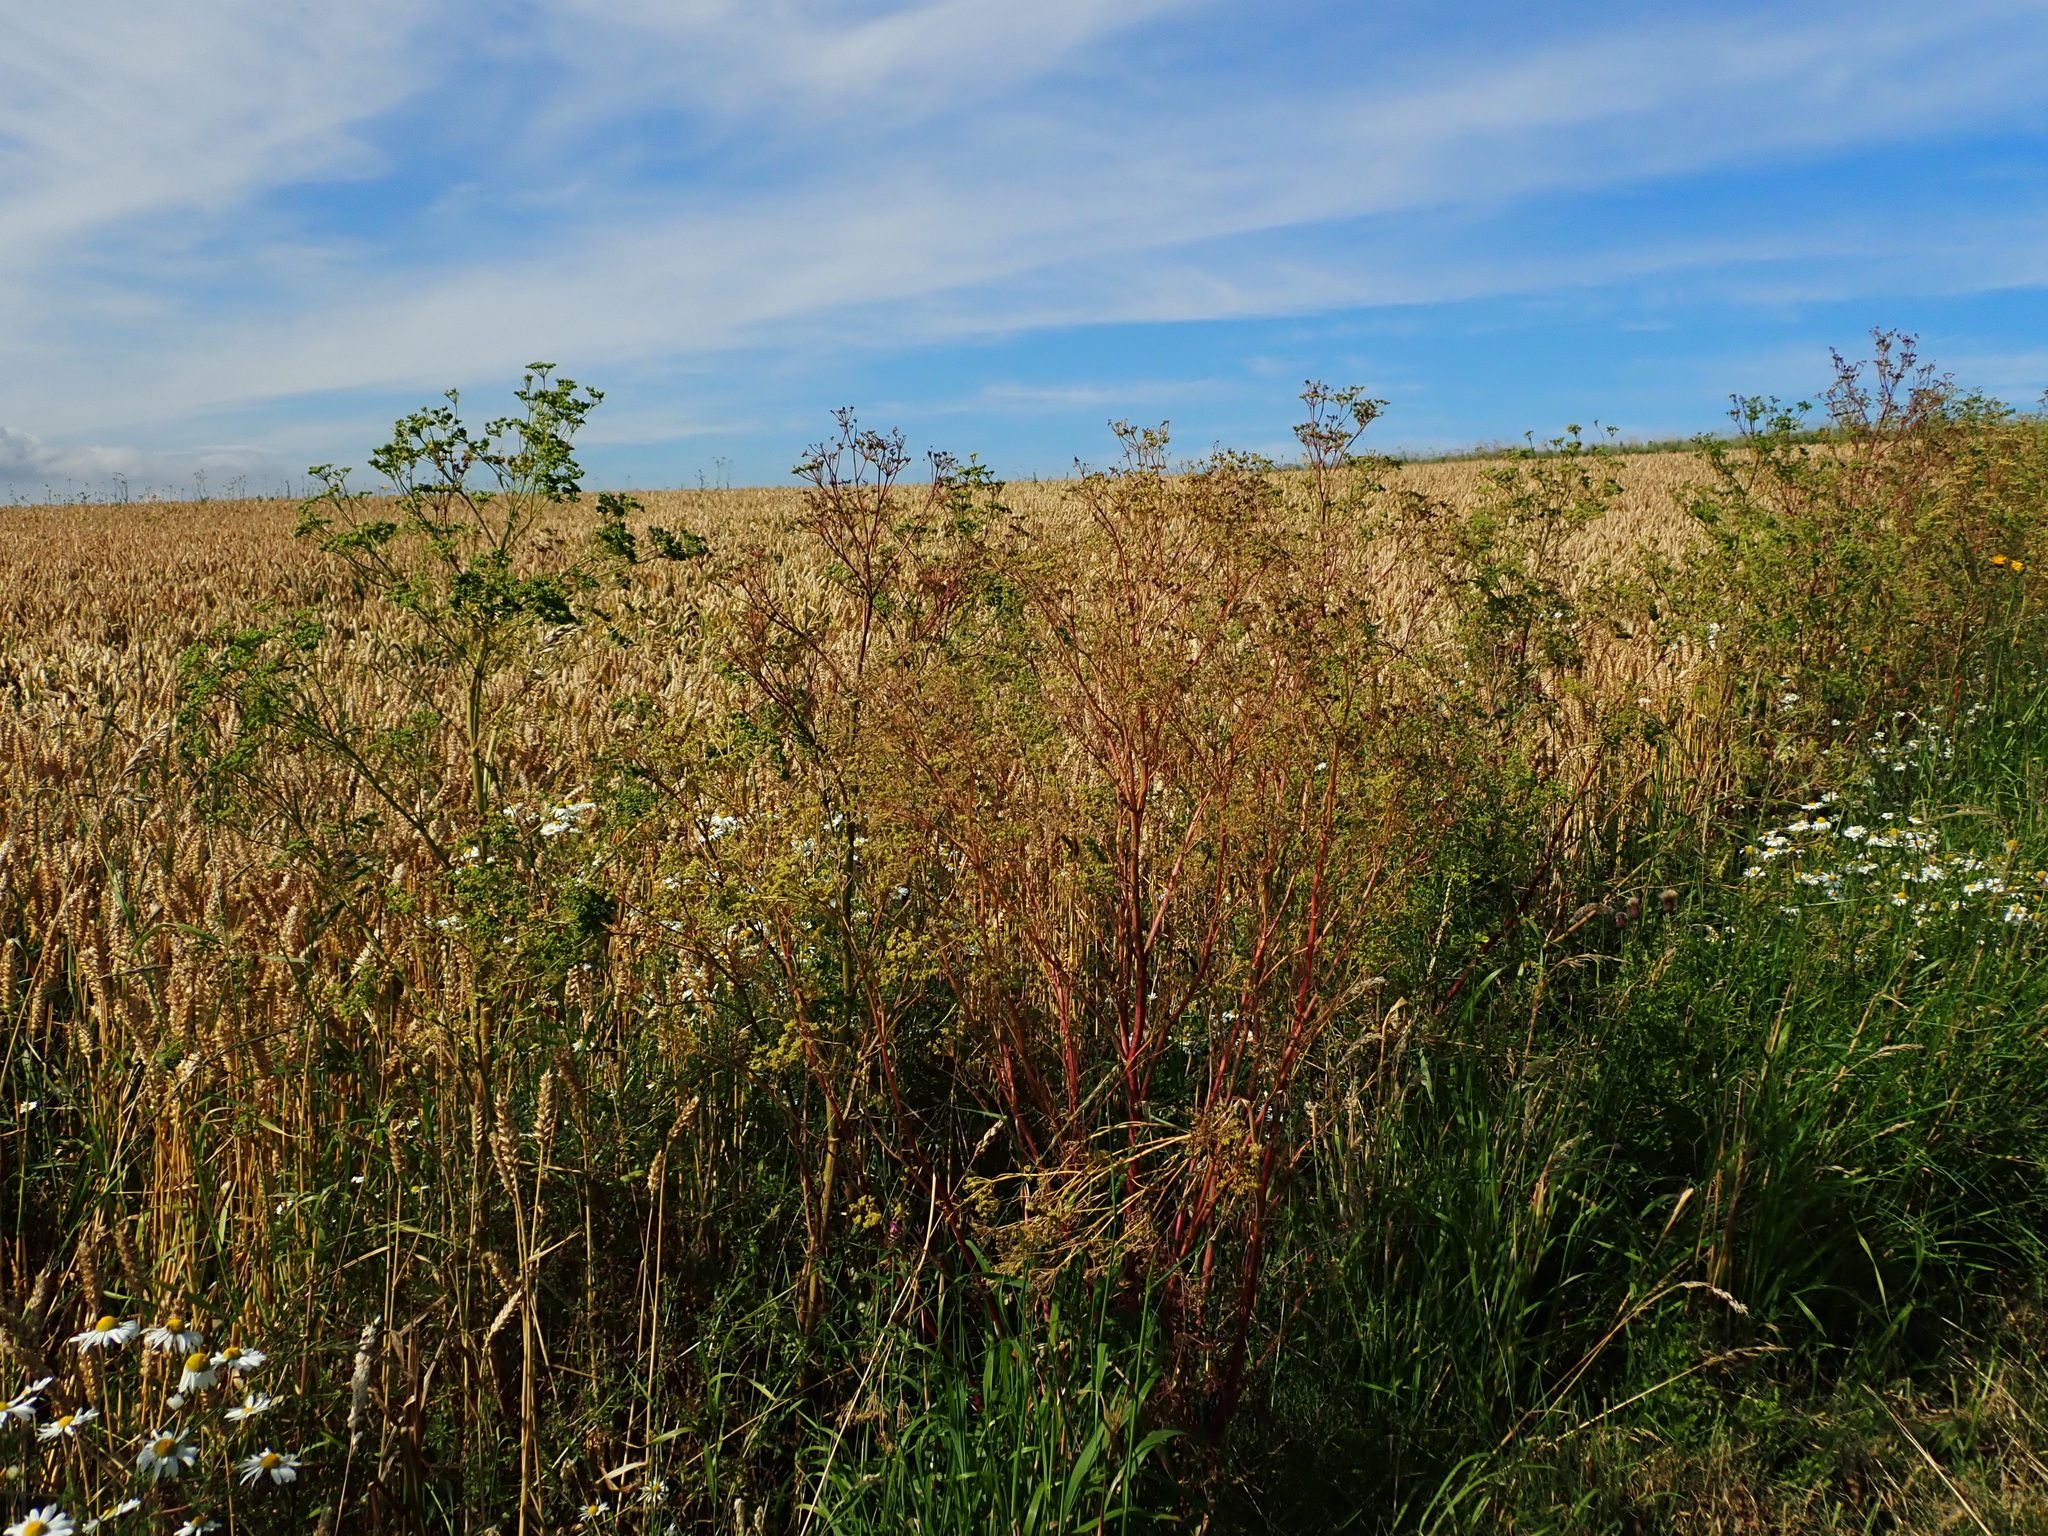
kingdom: Plantae
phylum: Tracheophyta
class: Magnoliopsida
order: Apiales
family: Apiaceae
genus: Conium
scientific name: Conium maculatum
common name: Hemlock
